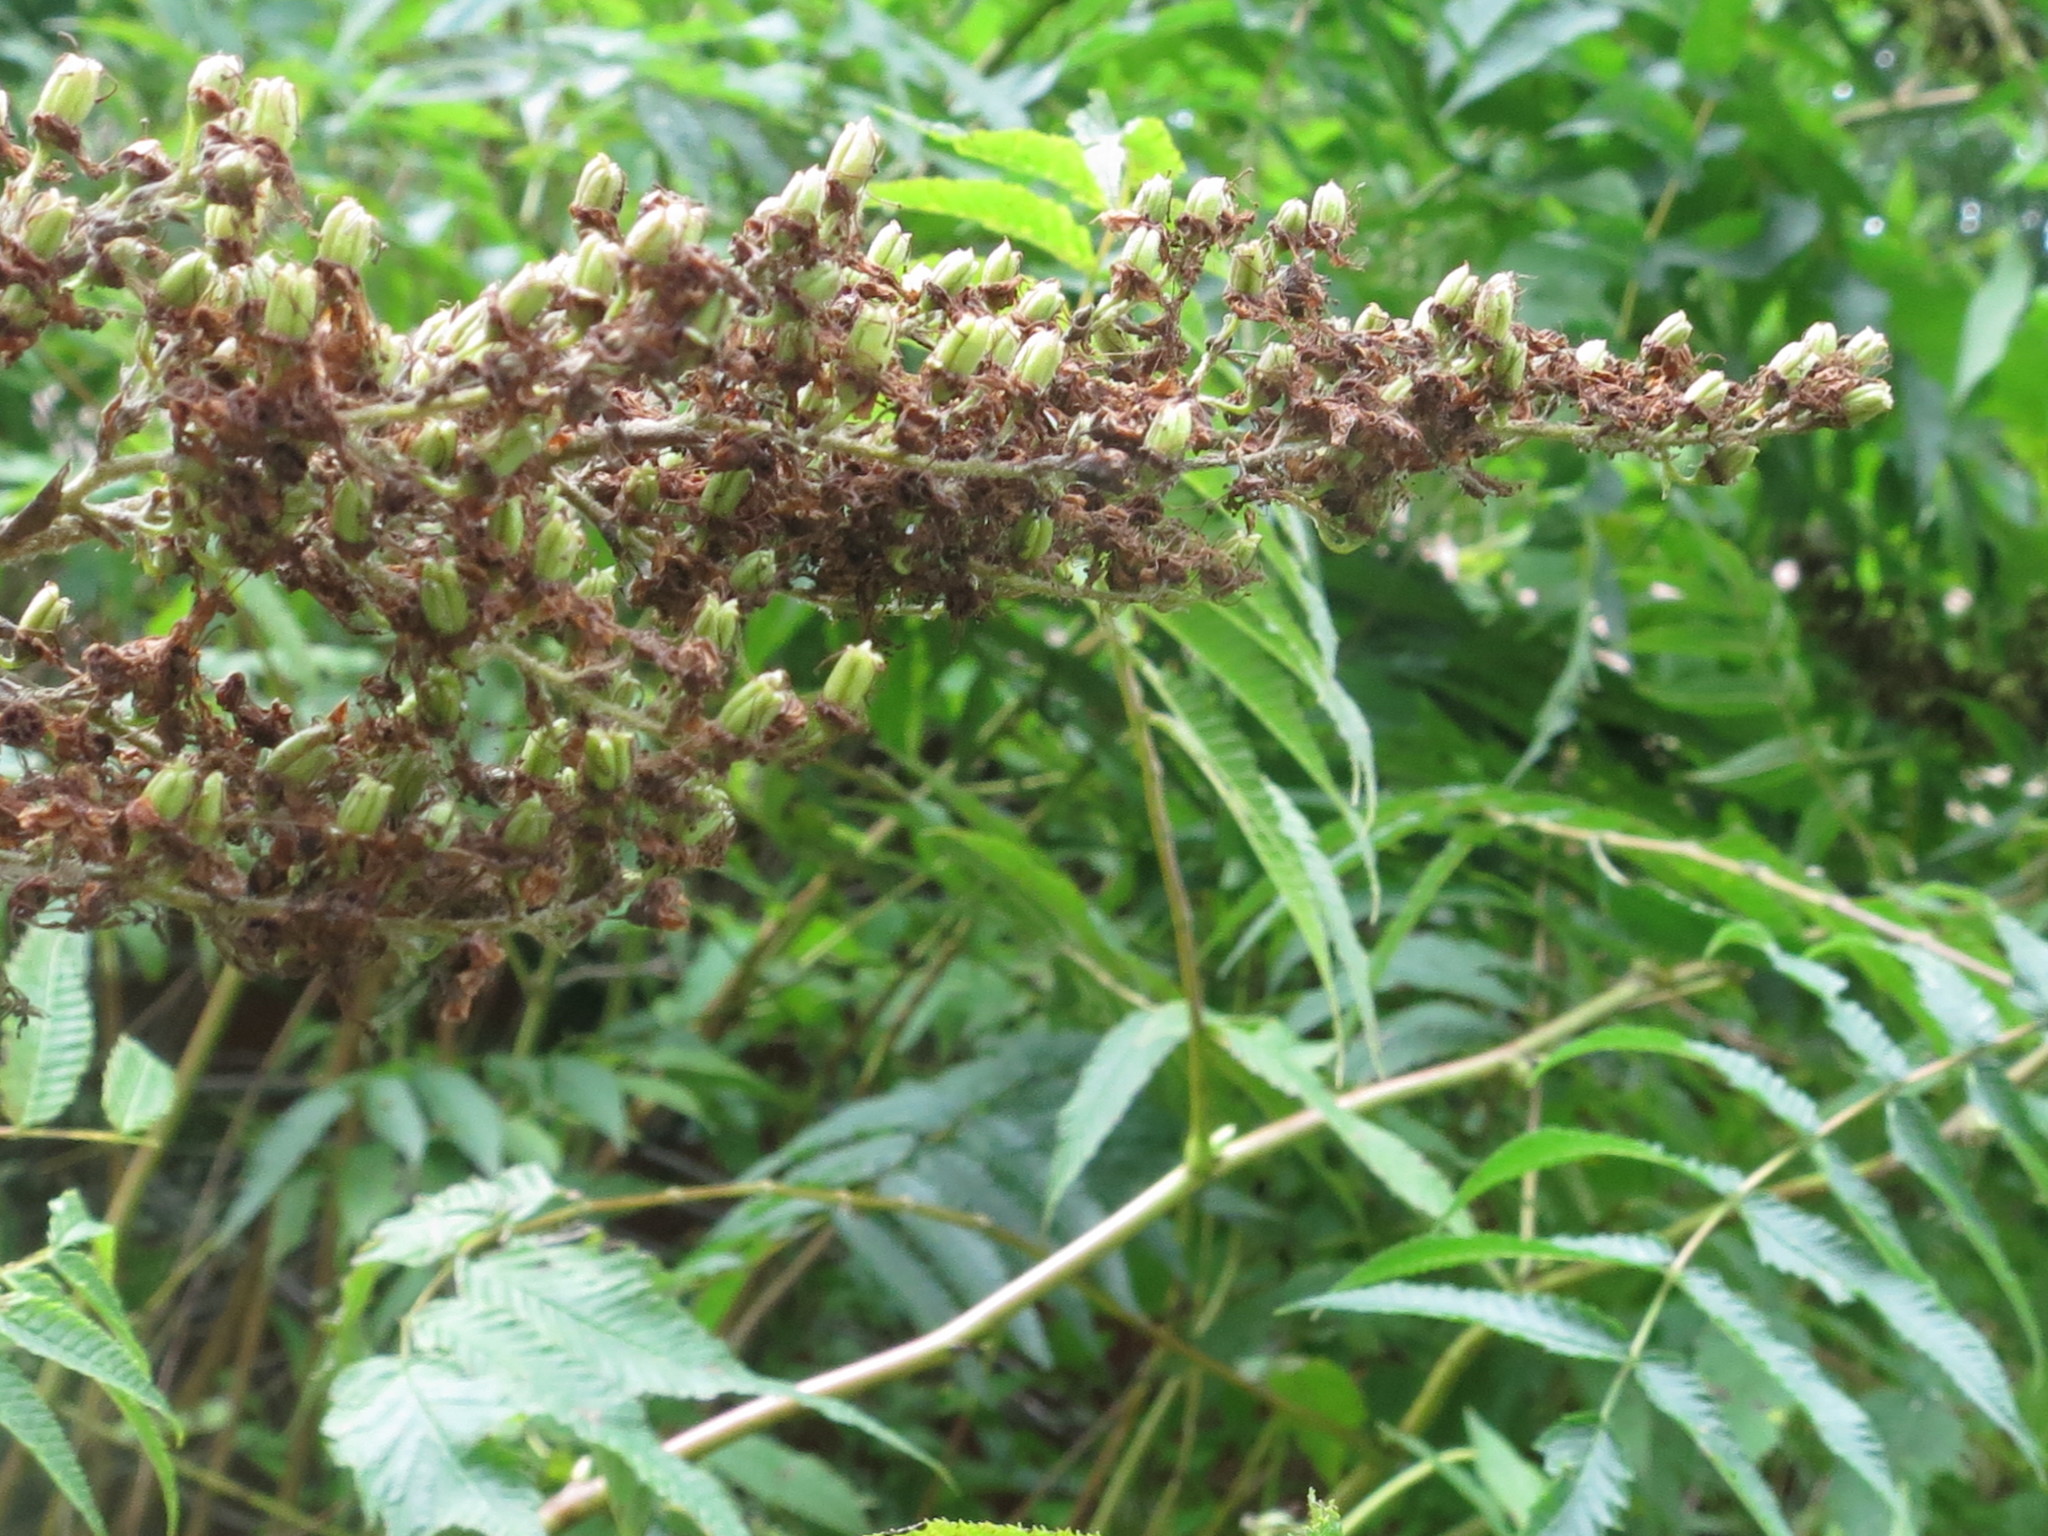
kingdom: Plantae
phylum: Tracheophyta
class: Magnoliopsida
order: Rosales
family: Rosaceae
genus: Sorbaria
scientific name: Sorbaria sorbifolia
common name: False spiraea
